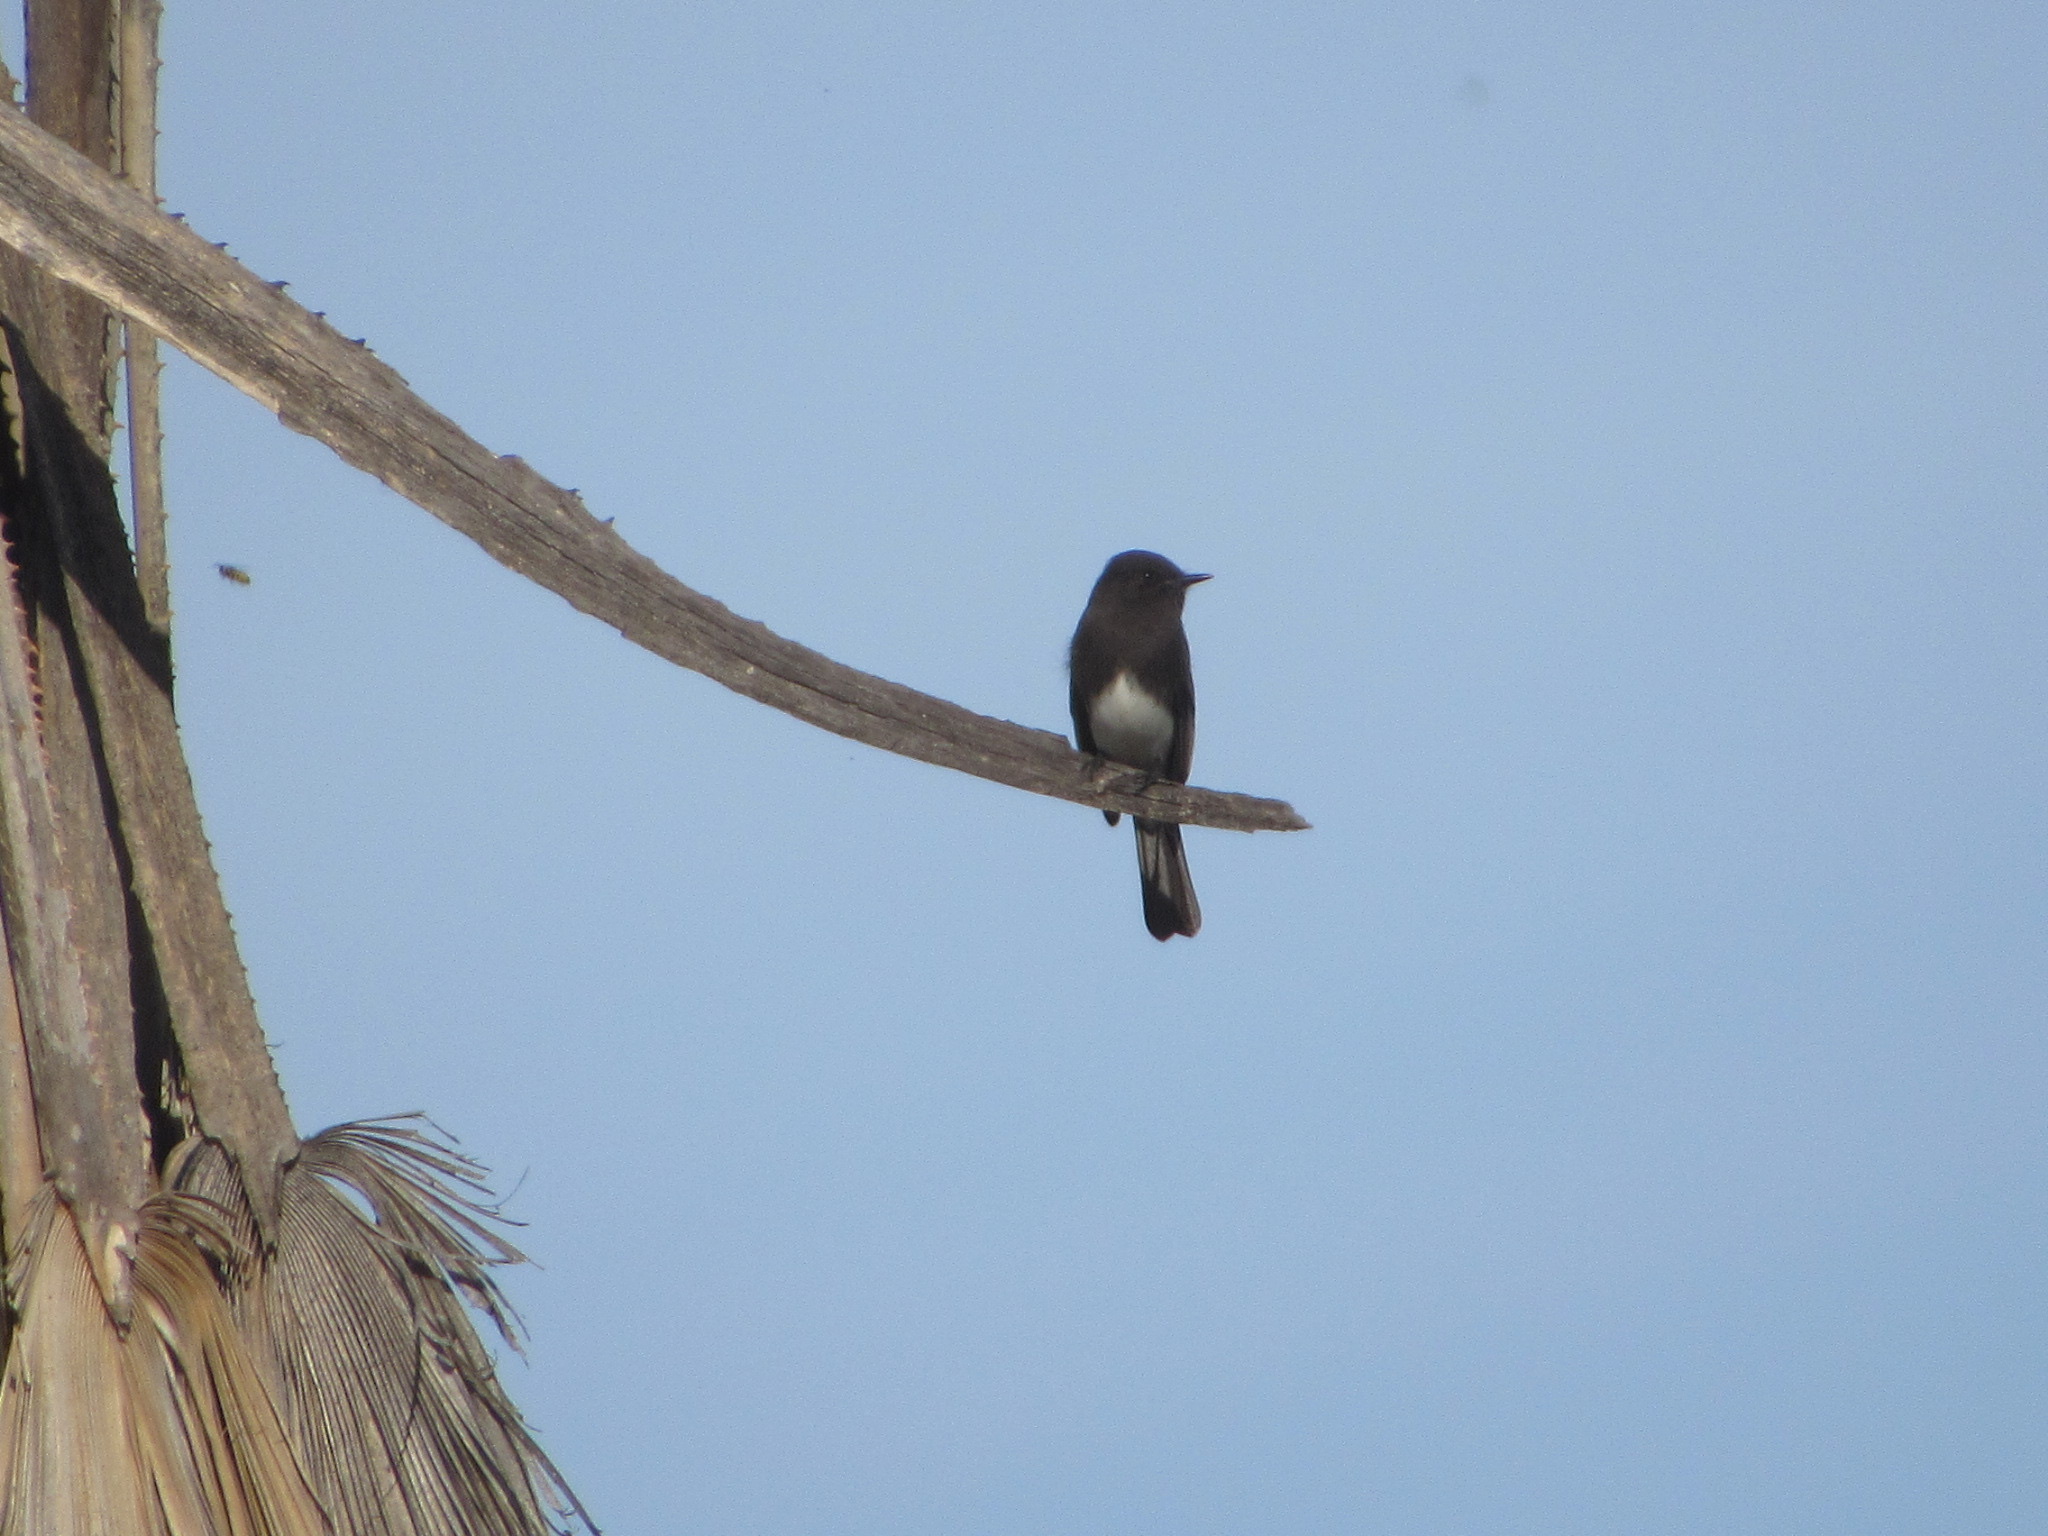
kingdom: Animalia
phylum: Chordata
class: Aves
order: Passeriformes
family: Tyrannidae
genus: Sayornis
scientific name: Sayornis nigricans
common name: Black phoebe
